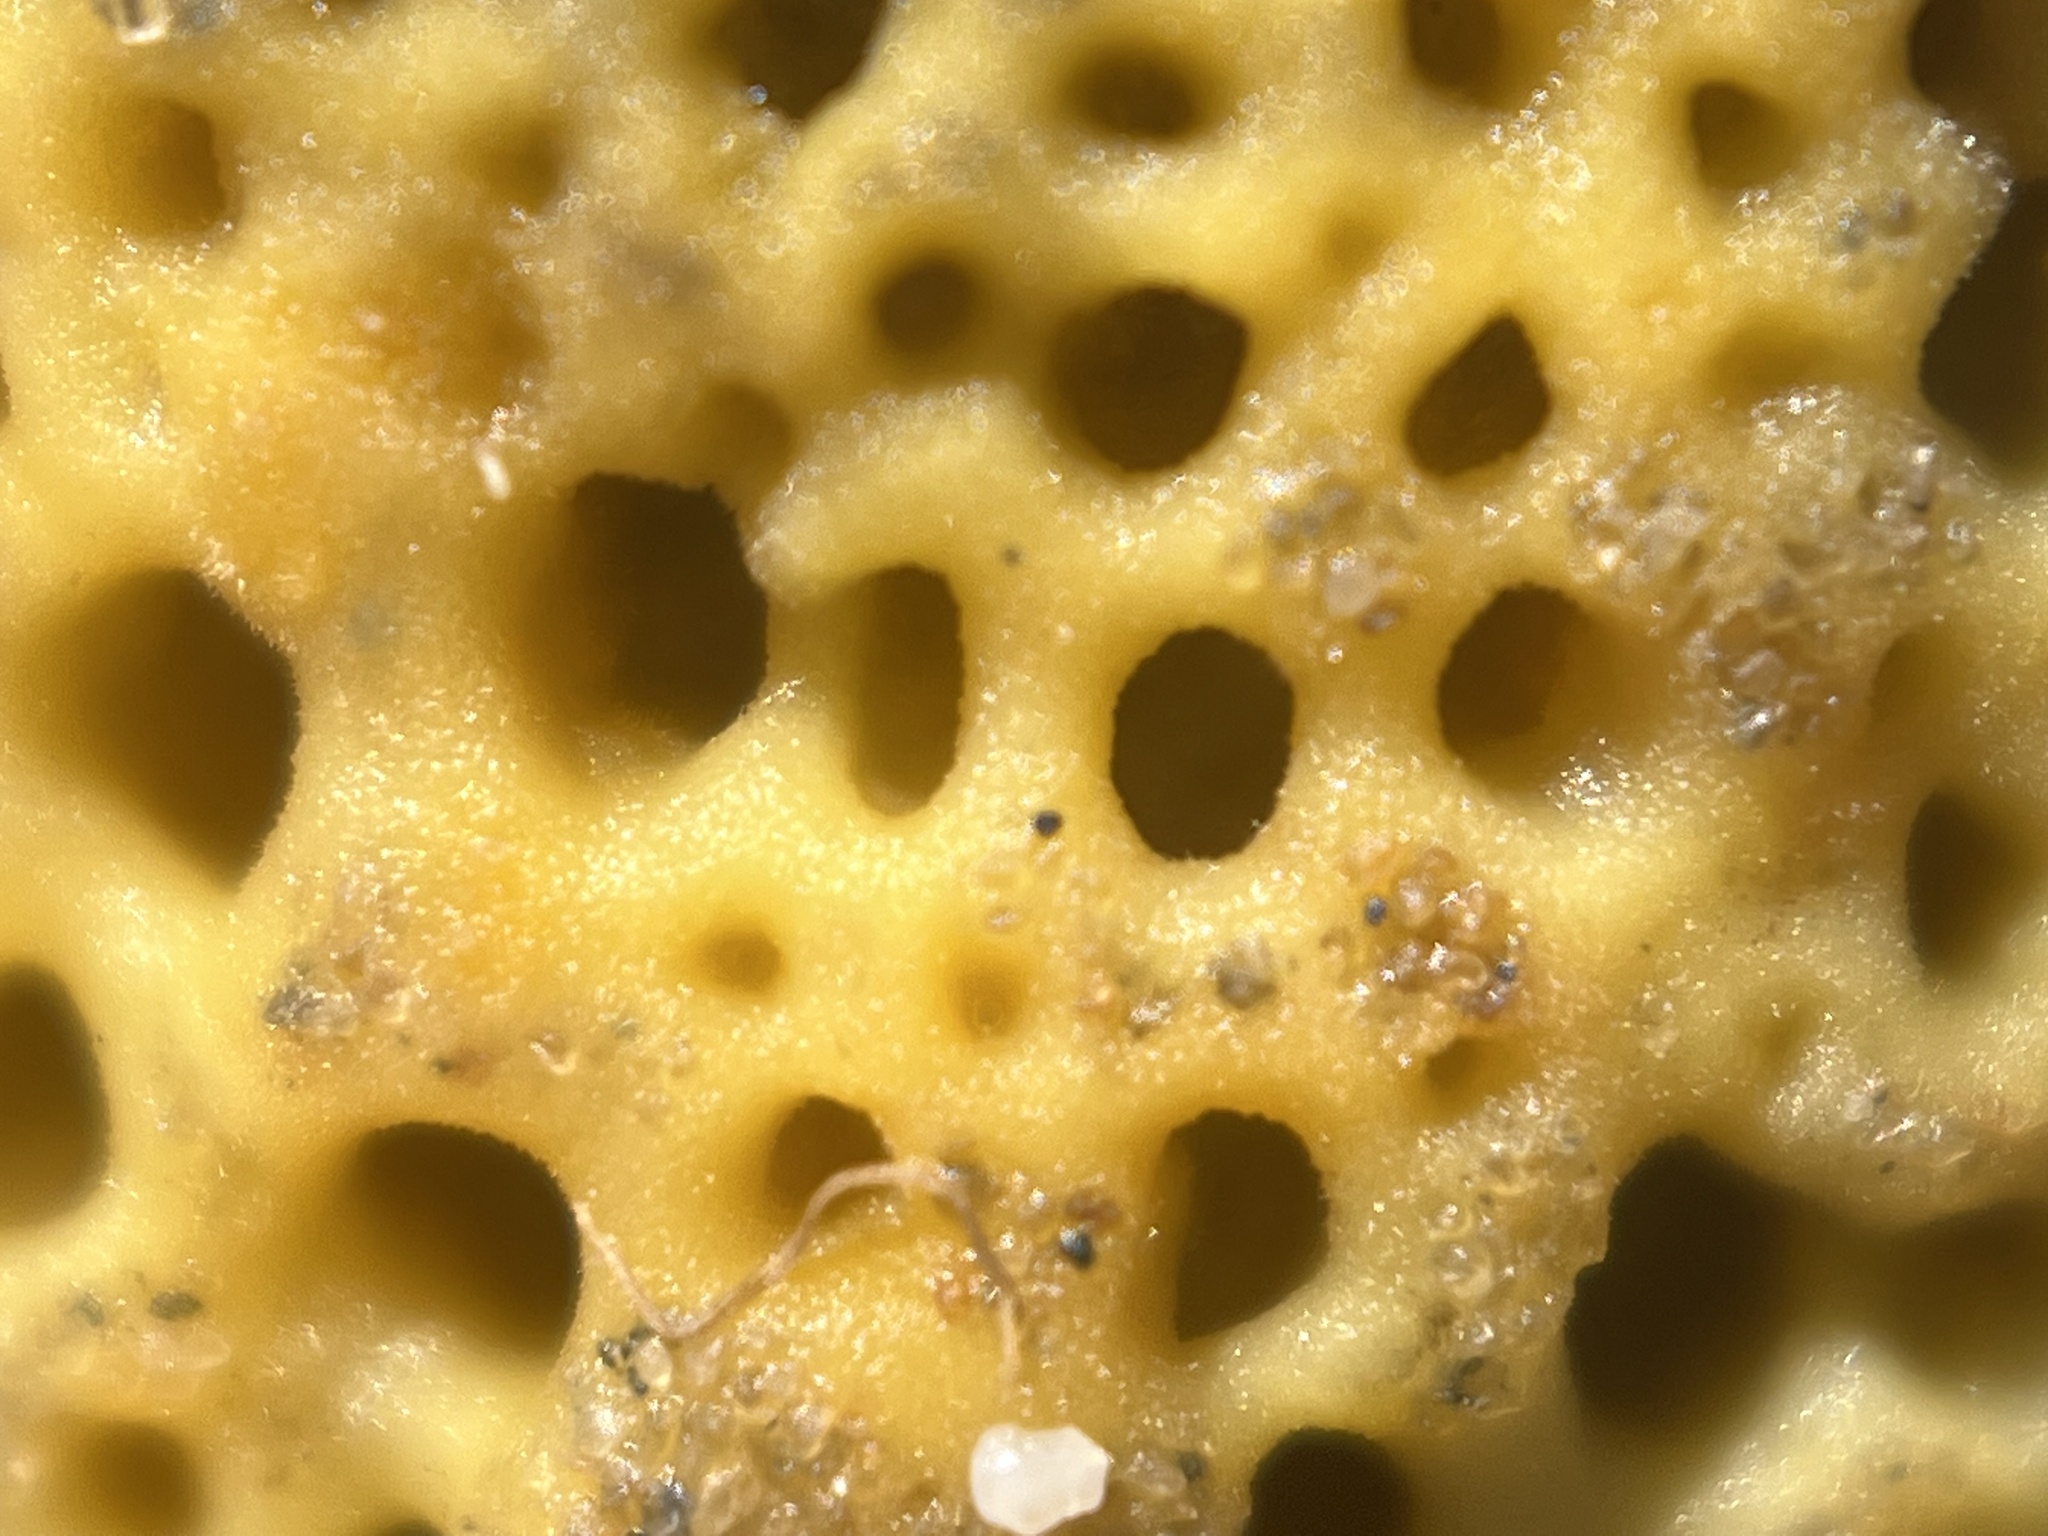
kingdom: Animalia
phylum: Porifera
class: Demospongiae
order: Clionaida
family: Clionaidae
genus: Cliona
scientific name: Cliona celata
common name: Boring sponge
